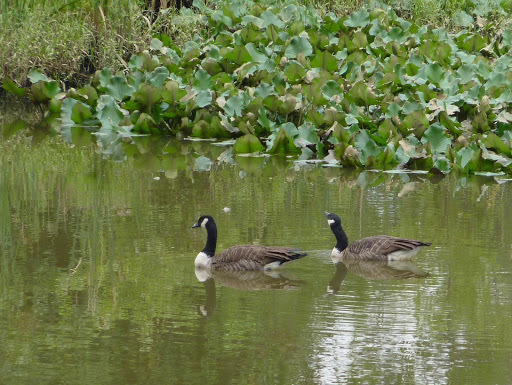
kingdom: Animalia
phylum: Chordata
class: Aves
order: Anseriformes
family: Anatidae
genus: Branta
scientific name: Branta canadensis
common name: Canada goose
